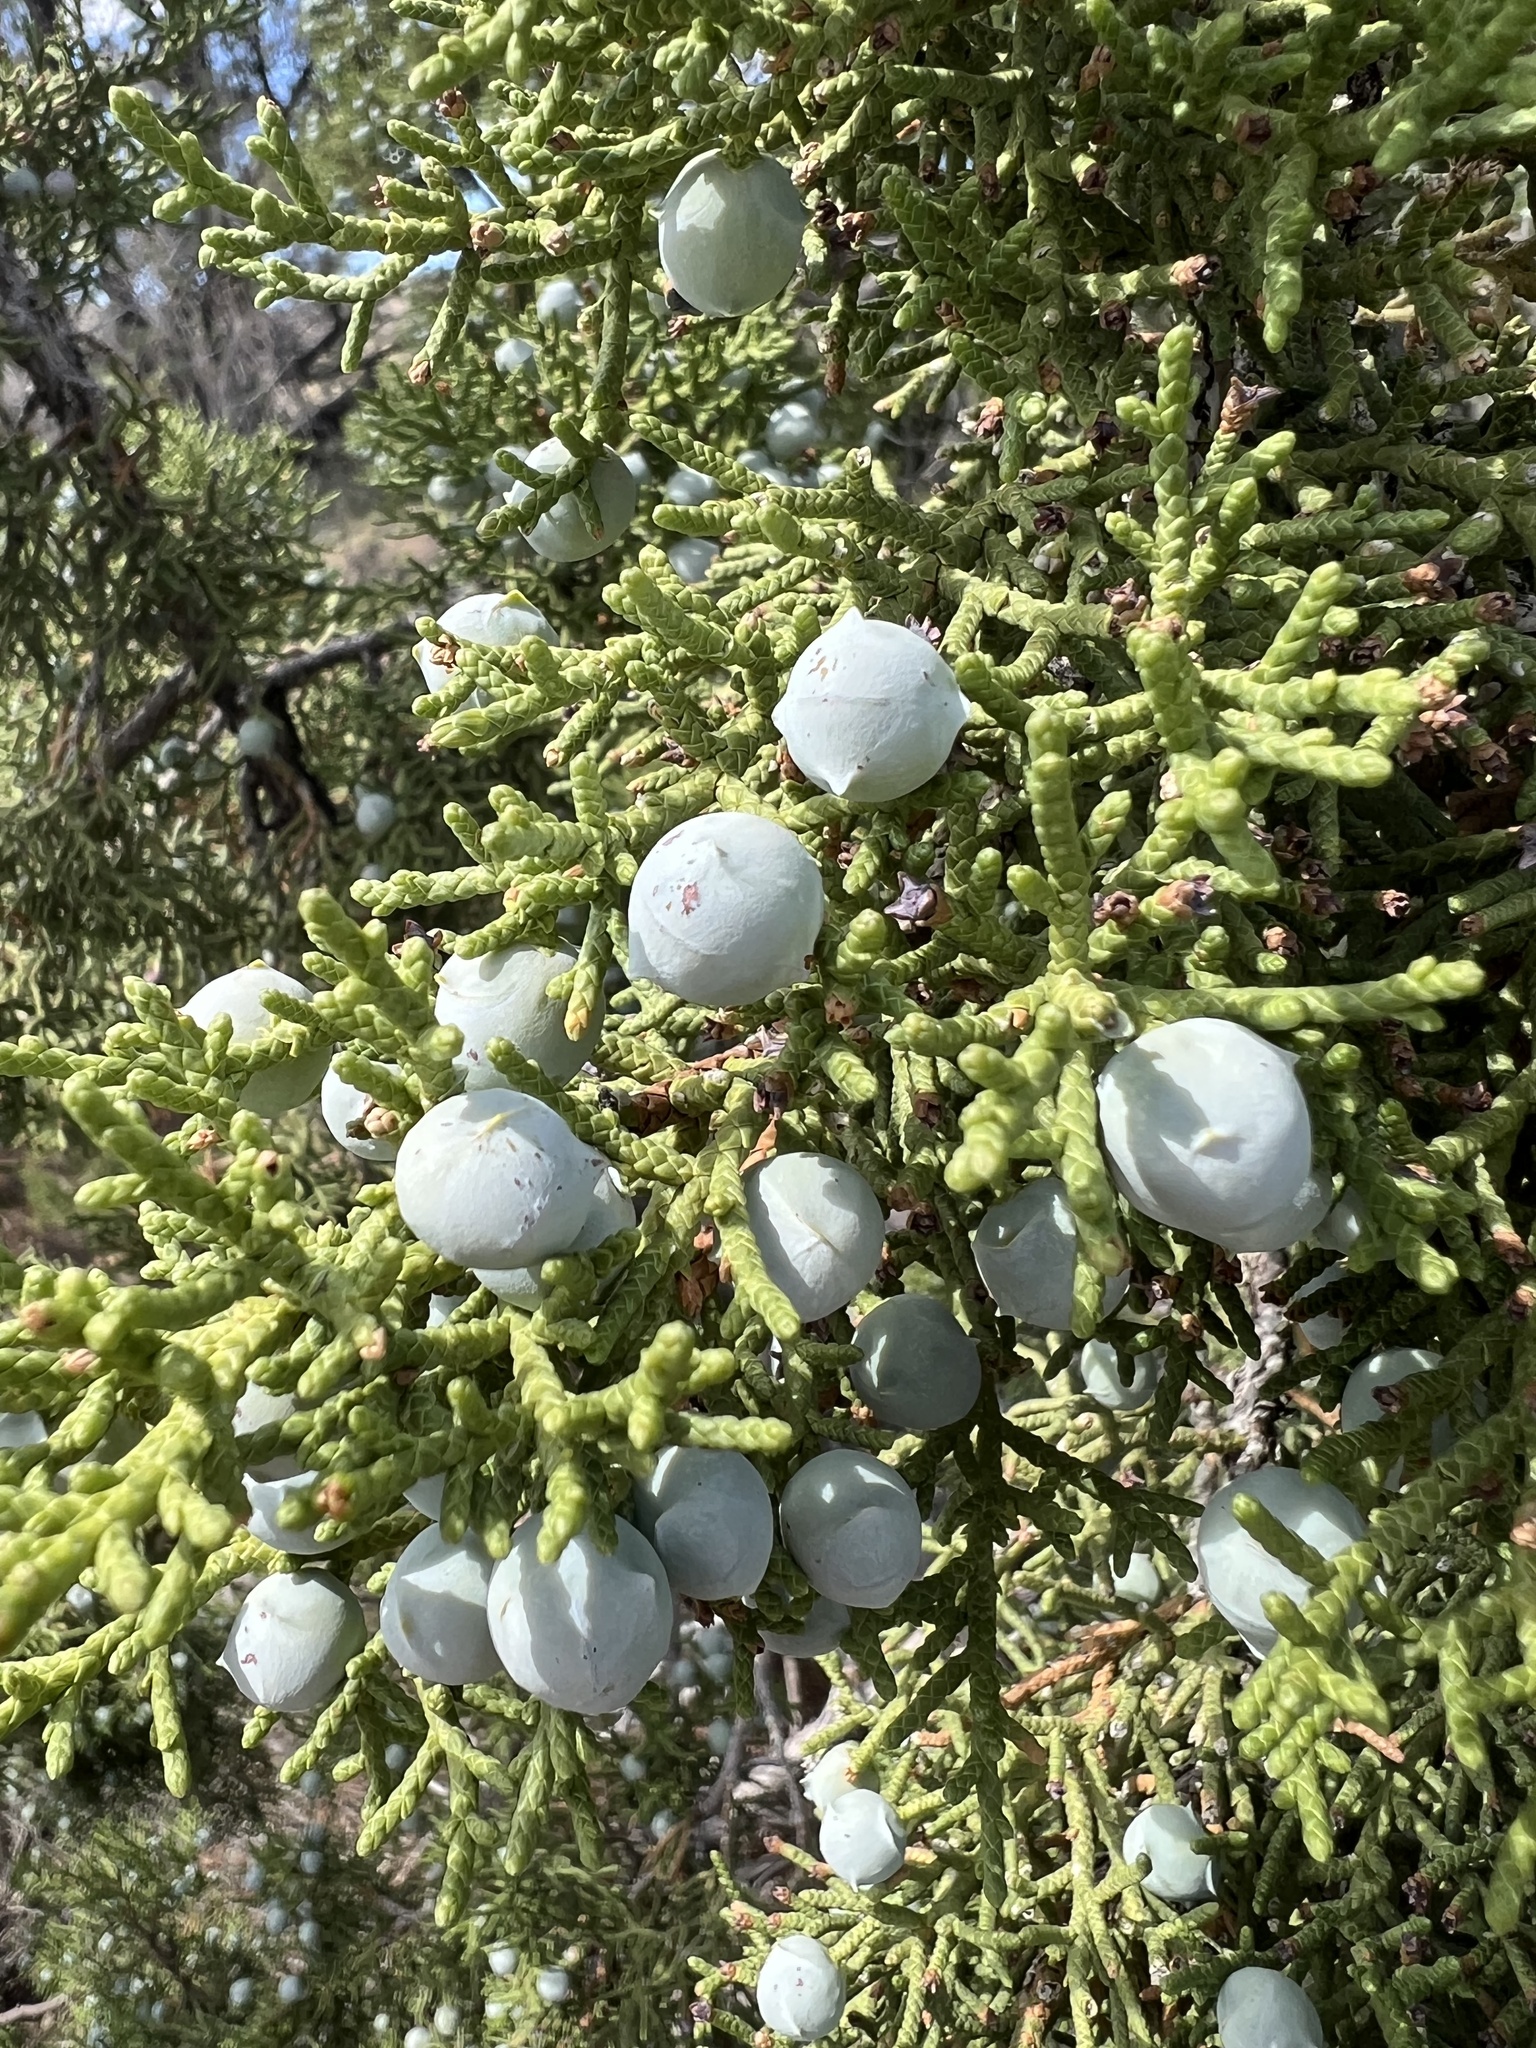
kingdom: Plantae
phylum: Tracheophyta
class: Pinopsida
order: Pinales
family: Cupressaceae
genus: Juniperus
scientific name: Juniperus osteosperma
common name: Utah juniper
